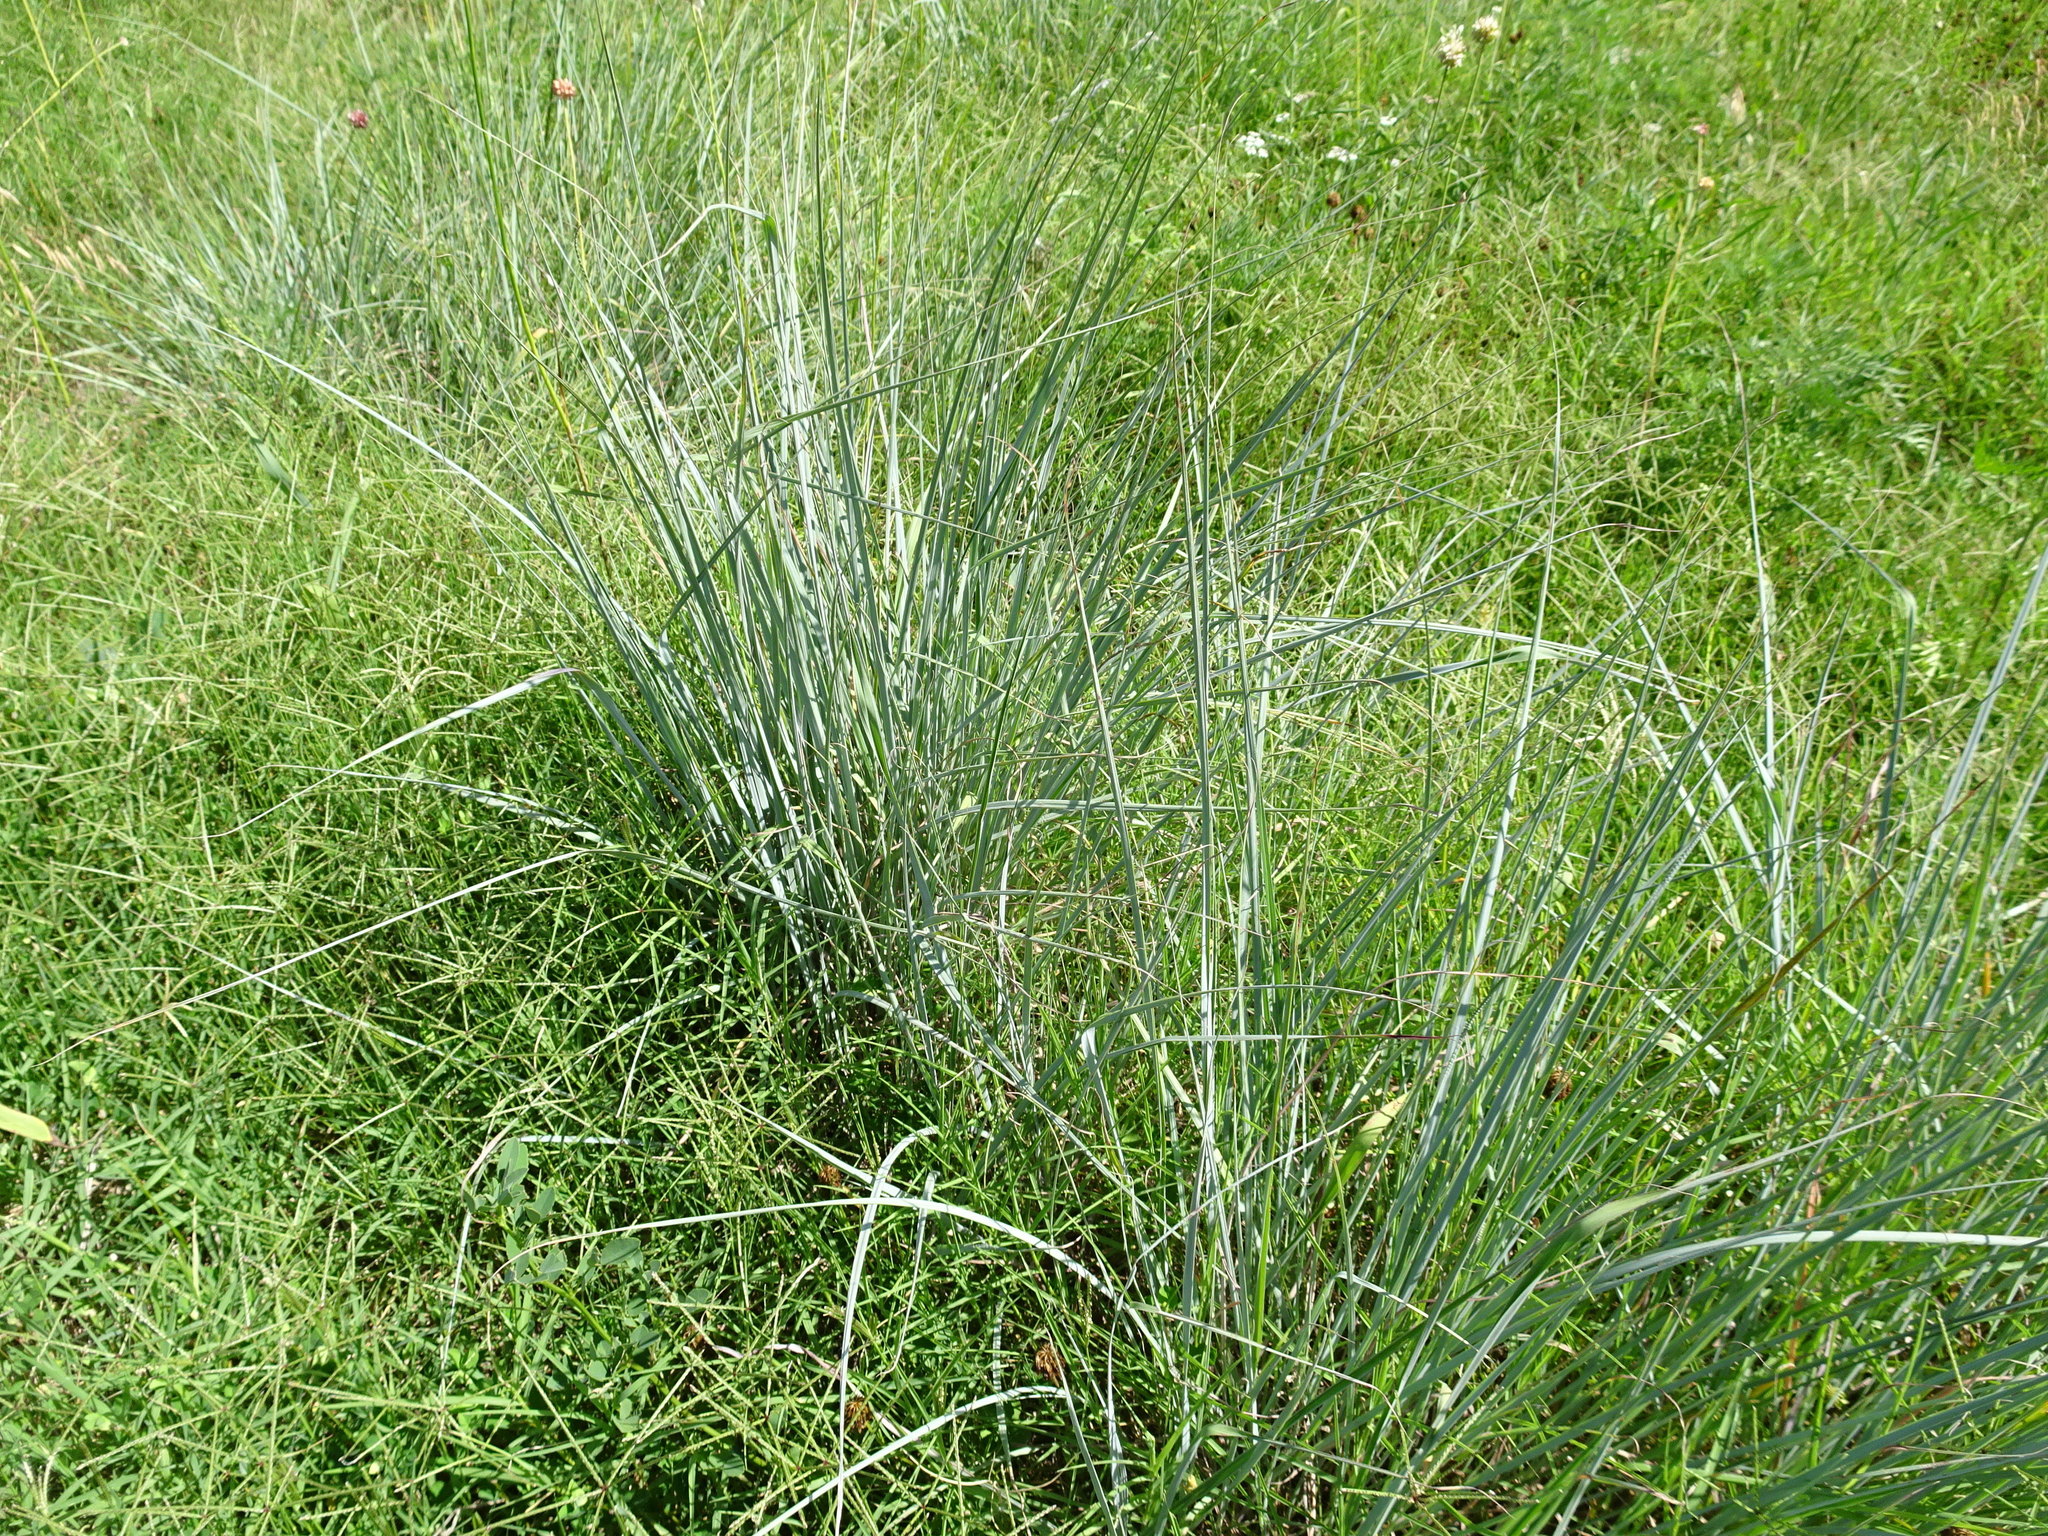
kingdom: Plantae
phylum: Tracheophyta
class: Liliopsida
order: Poales
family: Poaceae
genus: Sorghastrum
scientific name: Sorghastrum nutans
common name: Indian grass
